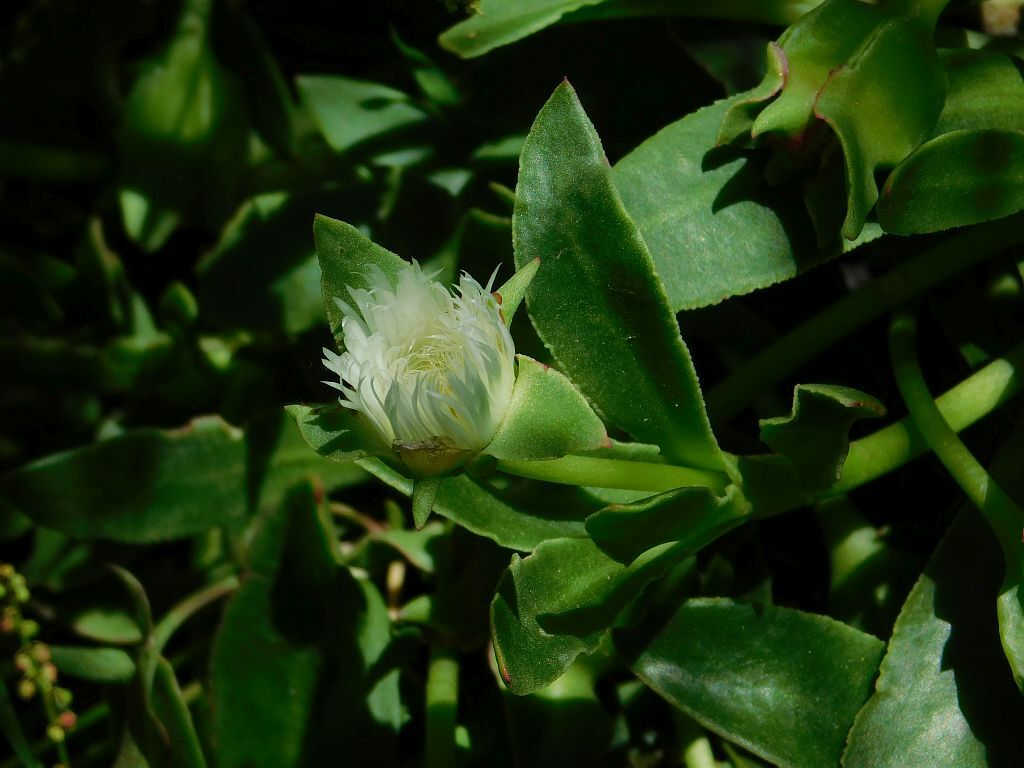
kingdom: Plantae
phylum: Tracheophyta
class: Magnoliopsida
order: Caryophyllales
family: Aizoaceae
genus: Skiatophytum
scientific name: Skiatophytum tripolium
